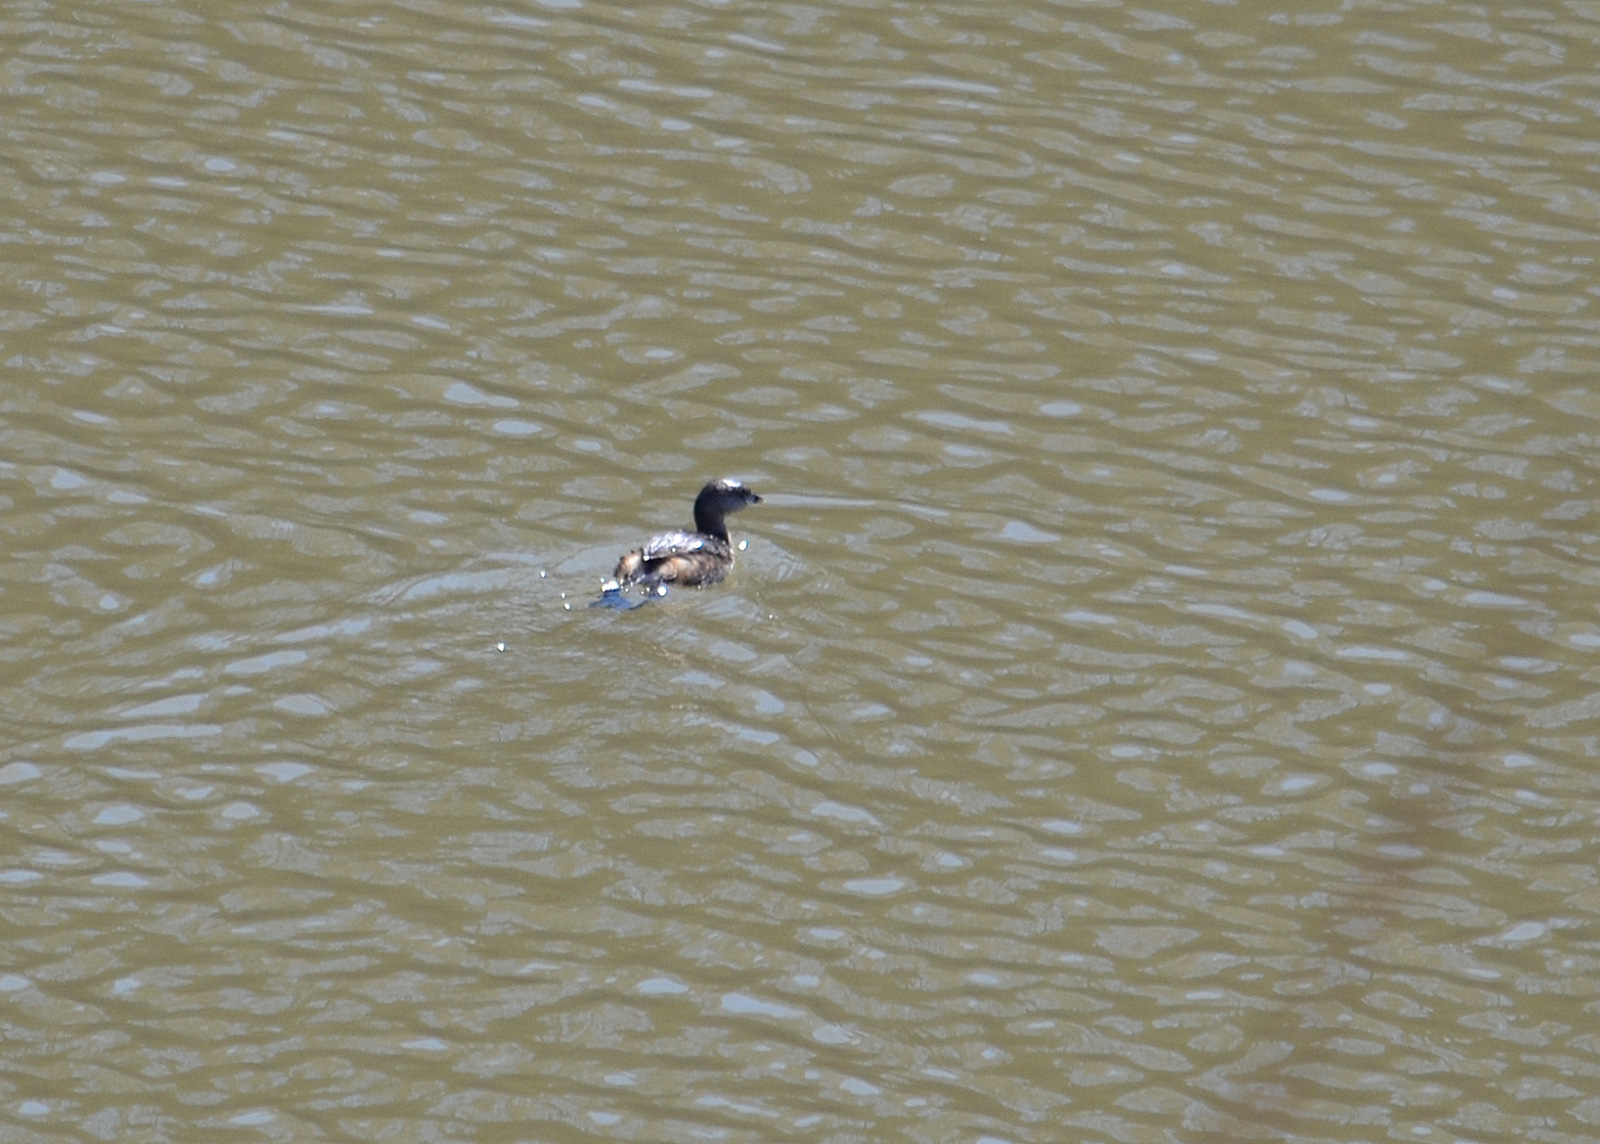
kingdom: Animalia
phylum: Chordata
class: Aves
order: Podicipediformes
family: Podicipedidae
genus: Podilymbus
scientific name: Podilymbus podiceps
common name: Pied-billed grebe
